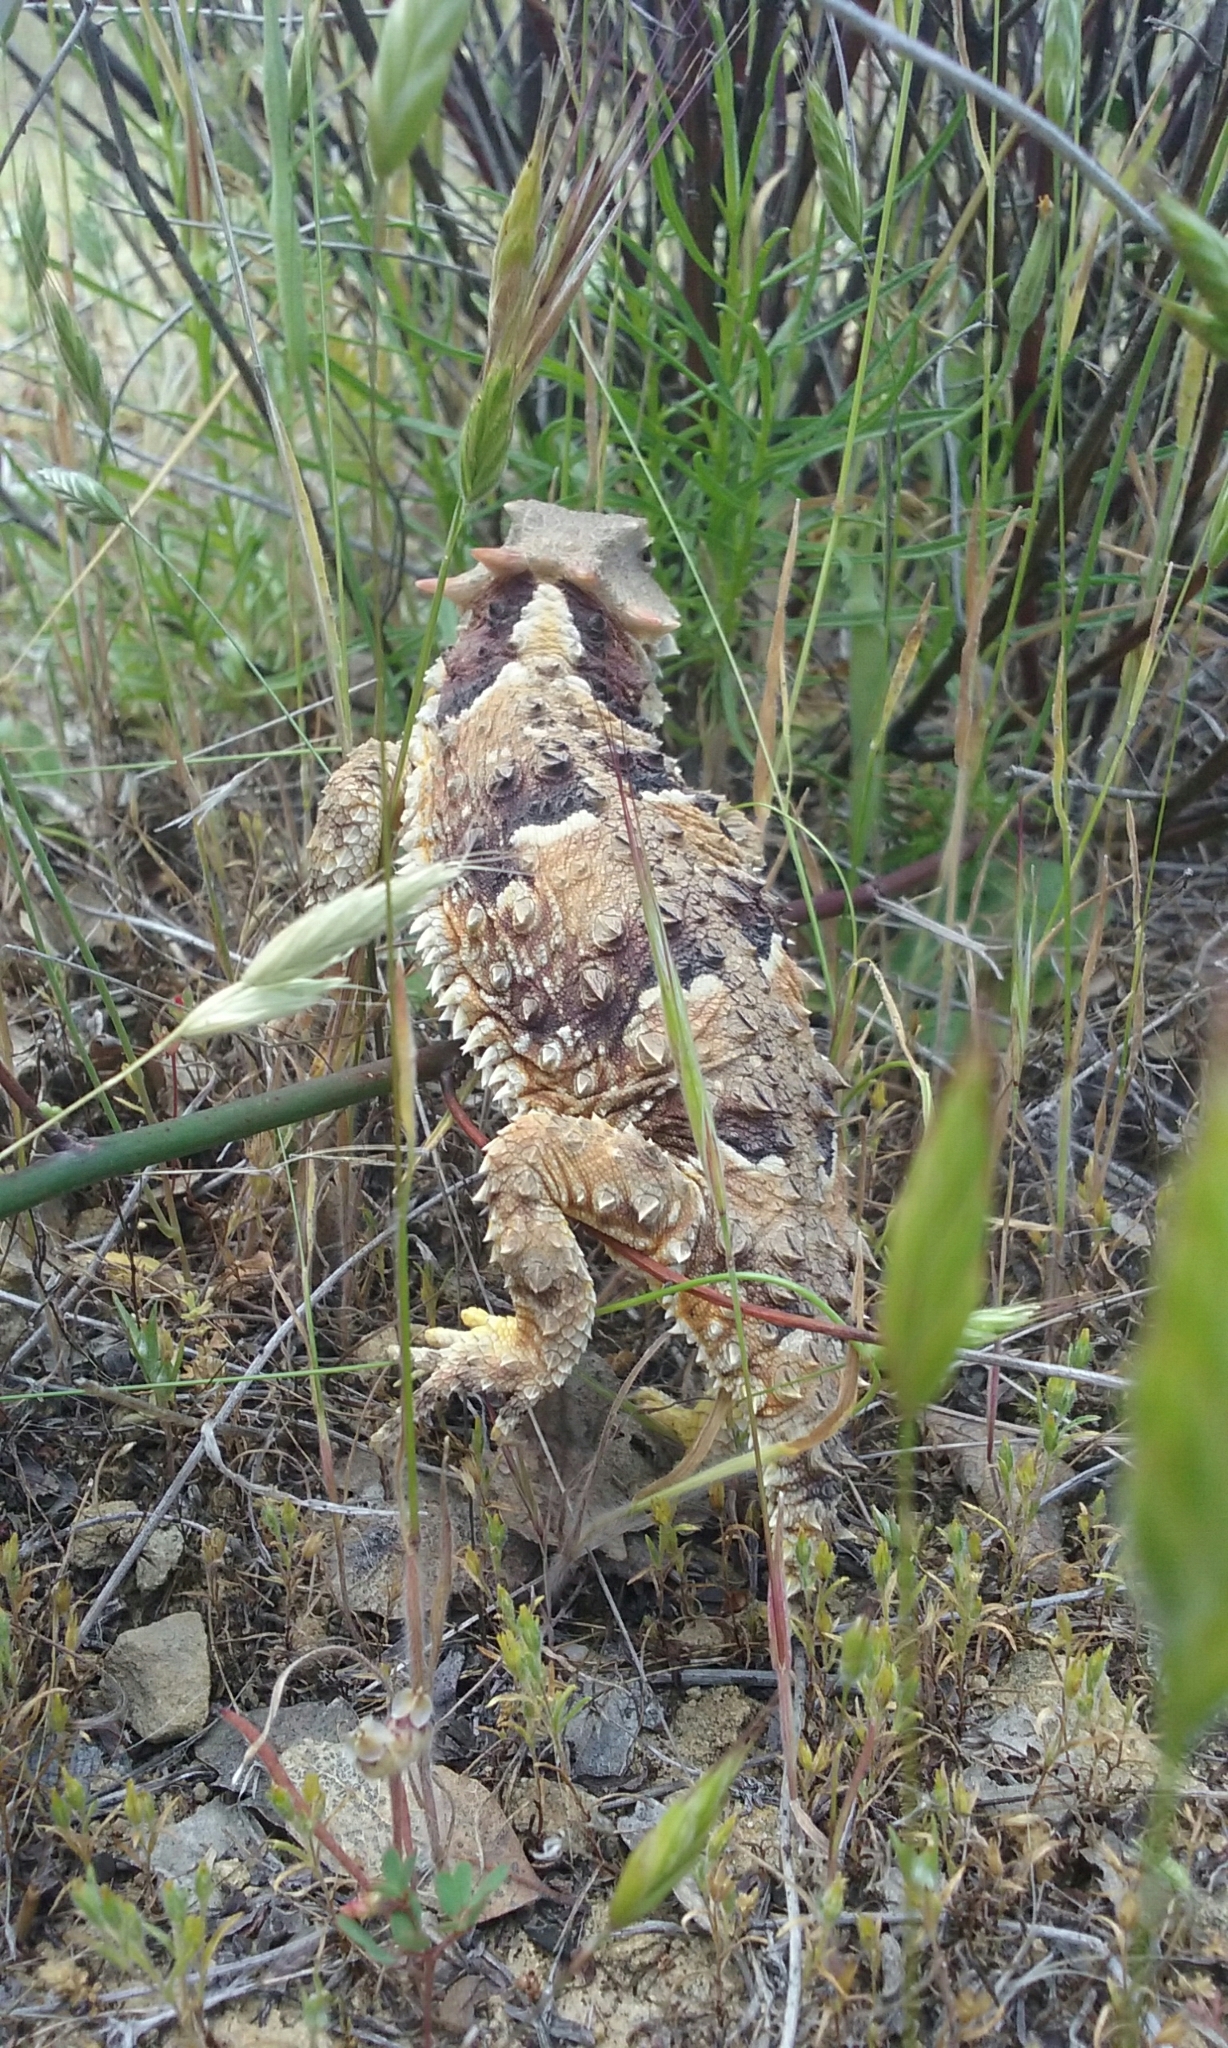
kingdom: Animalia
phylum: Chordata
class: Squamata
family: Phrynosomatidae
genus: Phrynosoma
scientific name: Phrynosoma blainvillii
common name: San diego horned lizard
